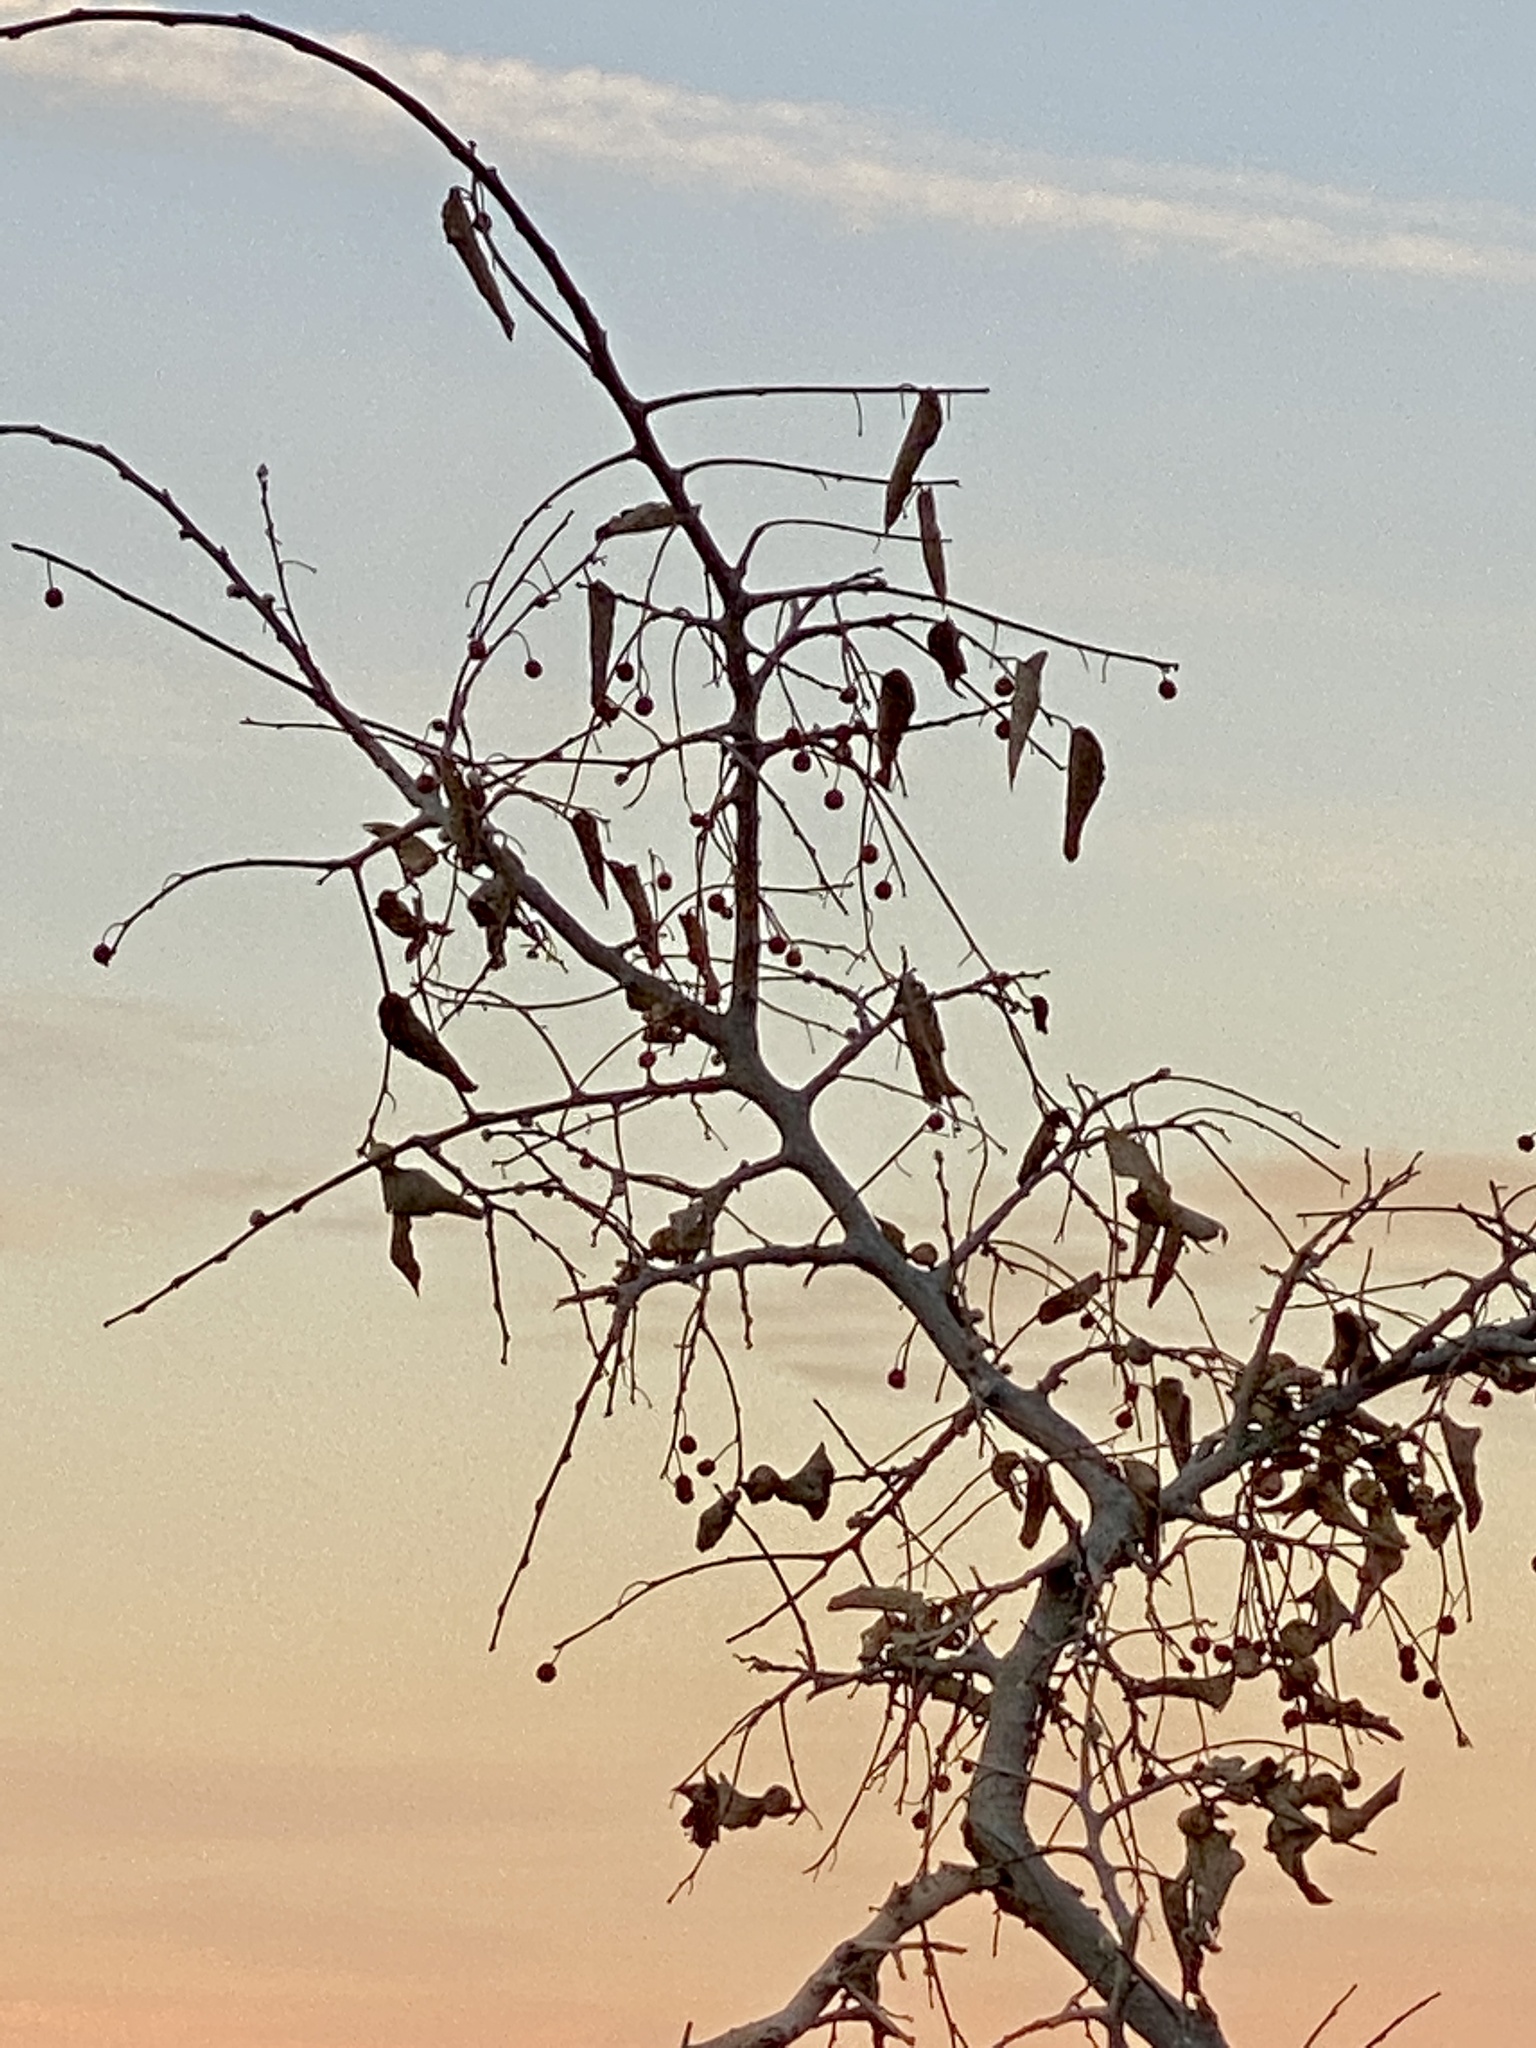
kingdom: Plantae
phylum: Tracheophyta
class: Magnoliopsida
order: Rosales
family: Cannabaceae
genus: Celtis
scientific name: Celtis reticulata
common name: Netleaf hackberry
